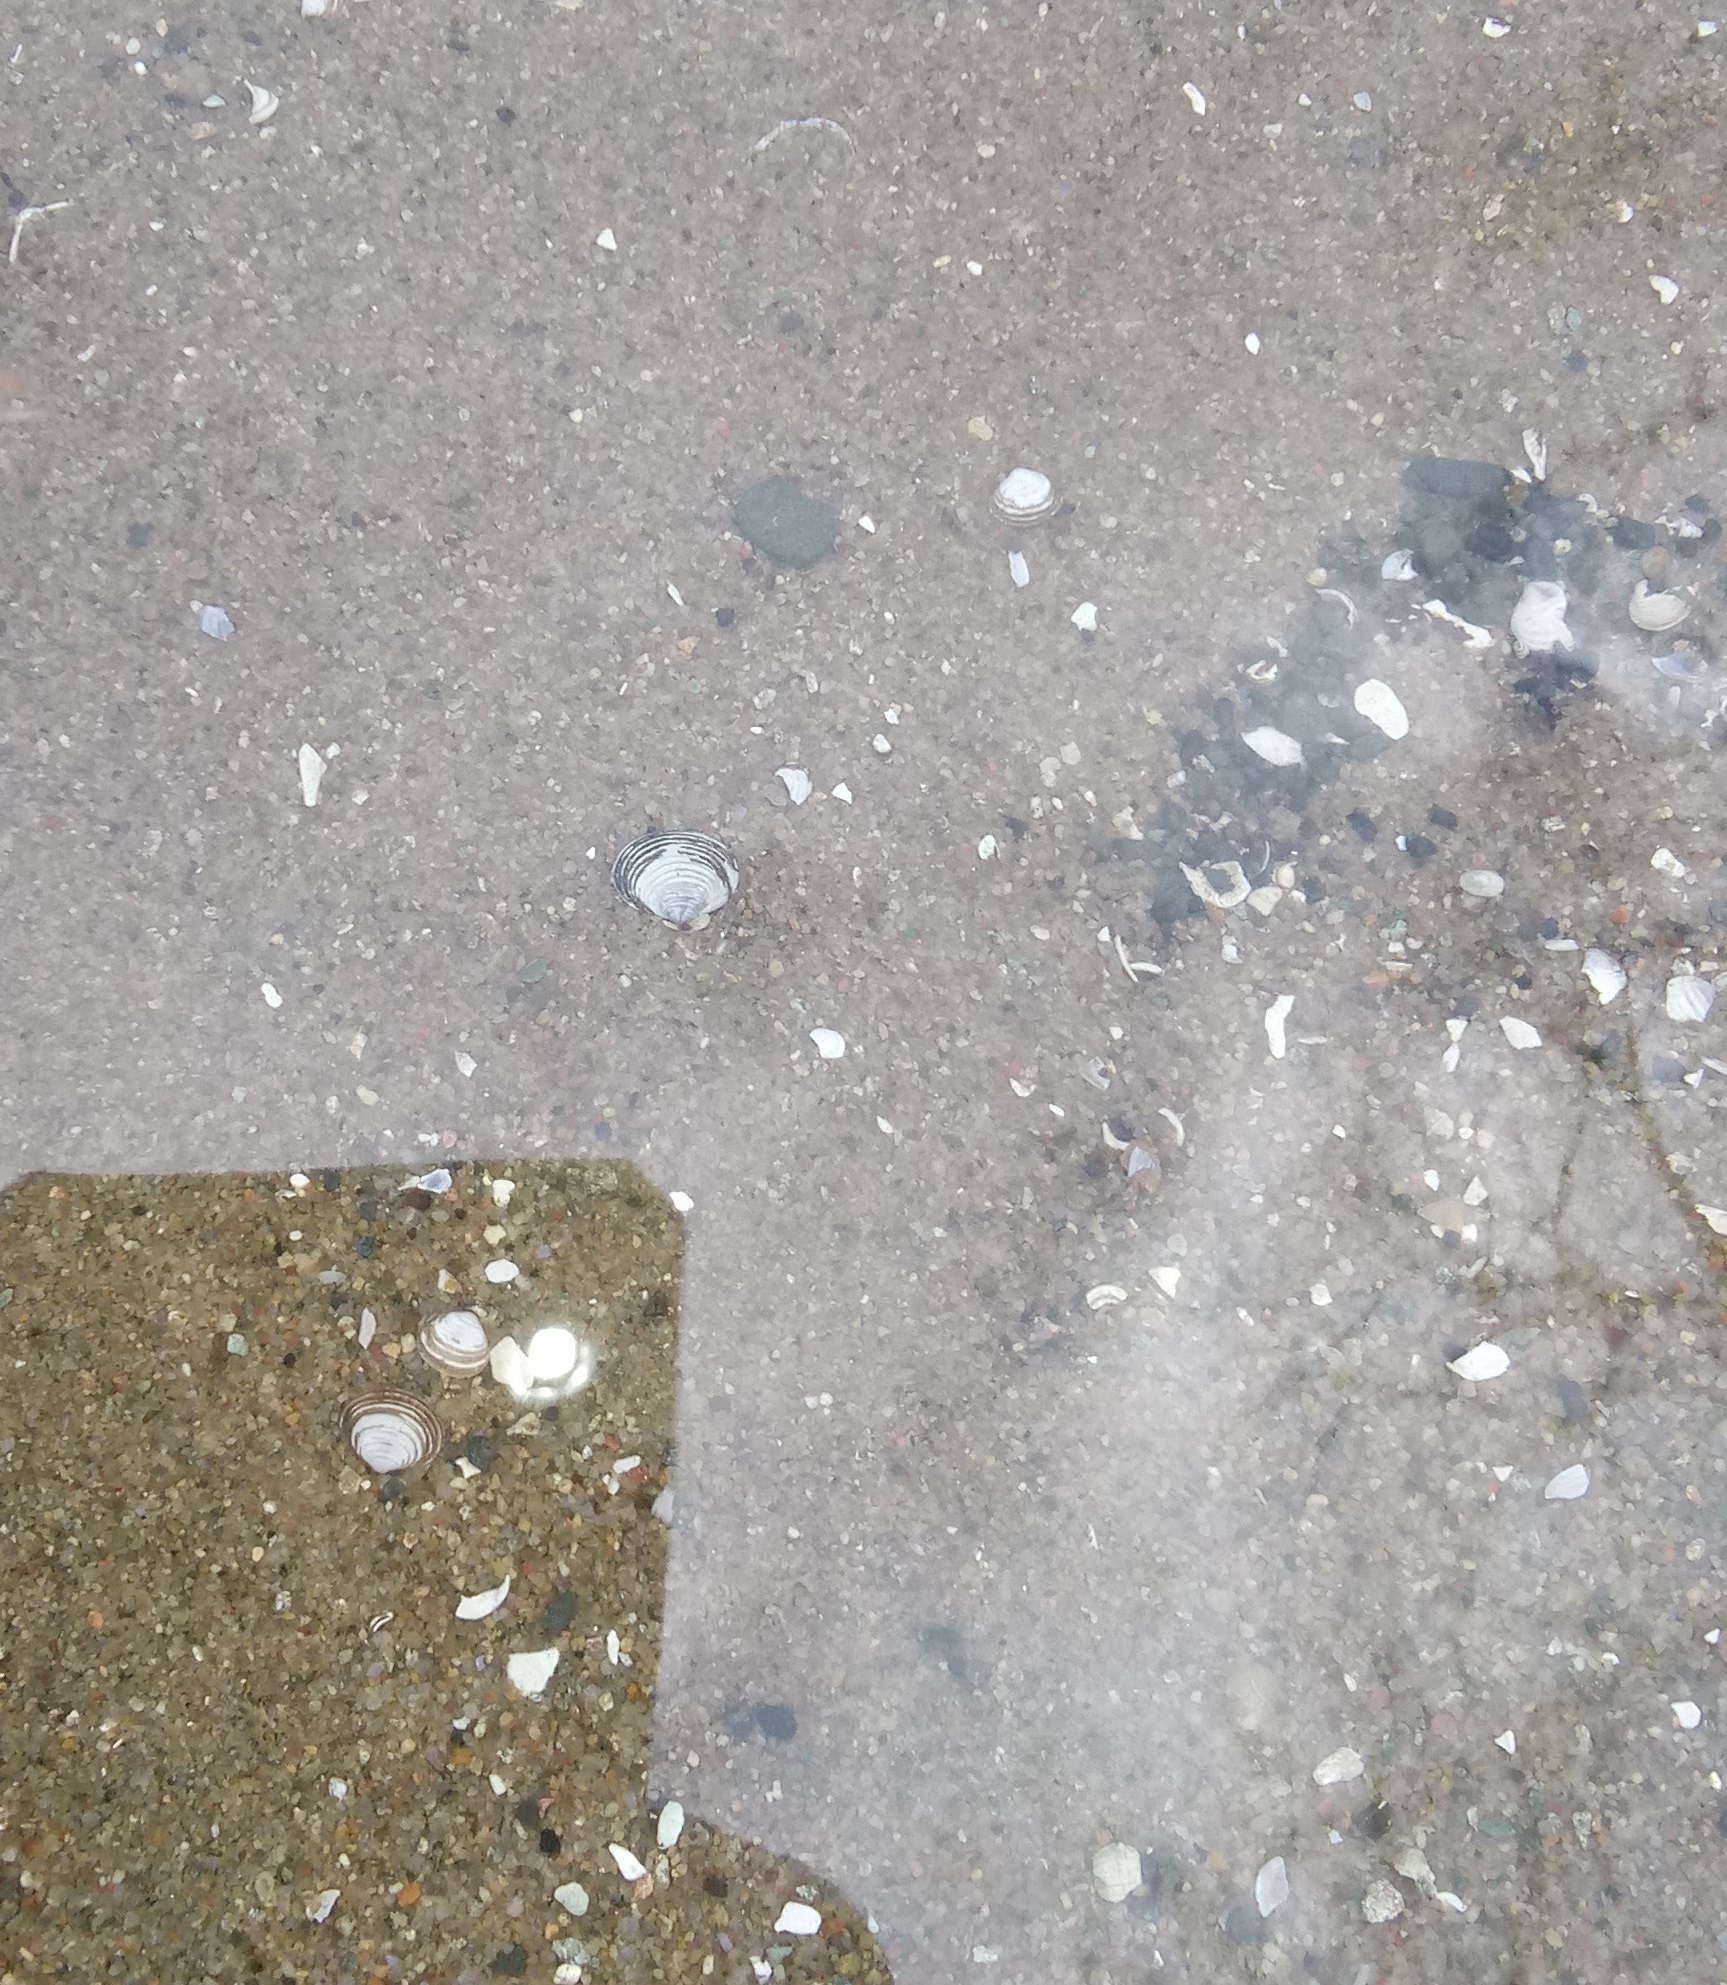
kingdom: Animalia
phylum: Mollusca
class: Bivalvia
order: Venerida
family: Cyrenidae
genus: Corbicula
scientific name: Corbicula fluminea
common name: Asian clam
